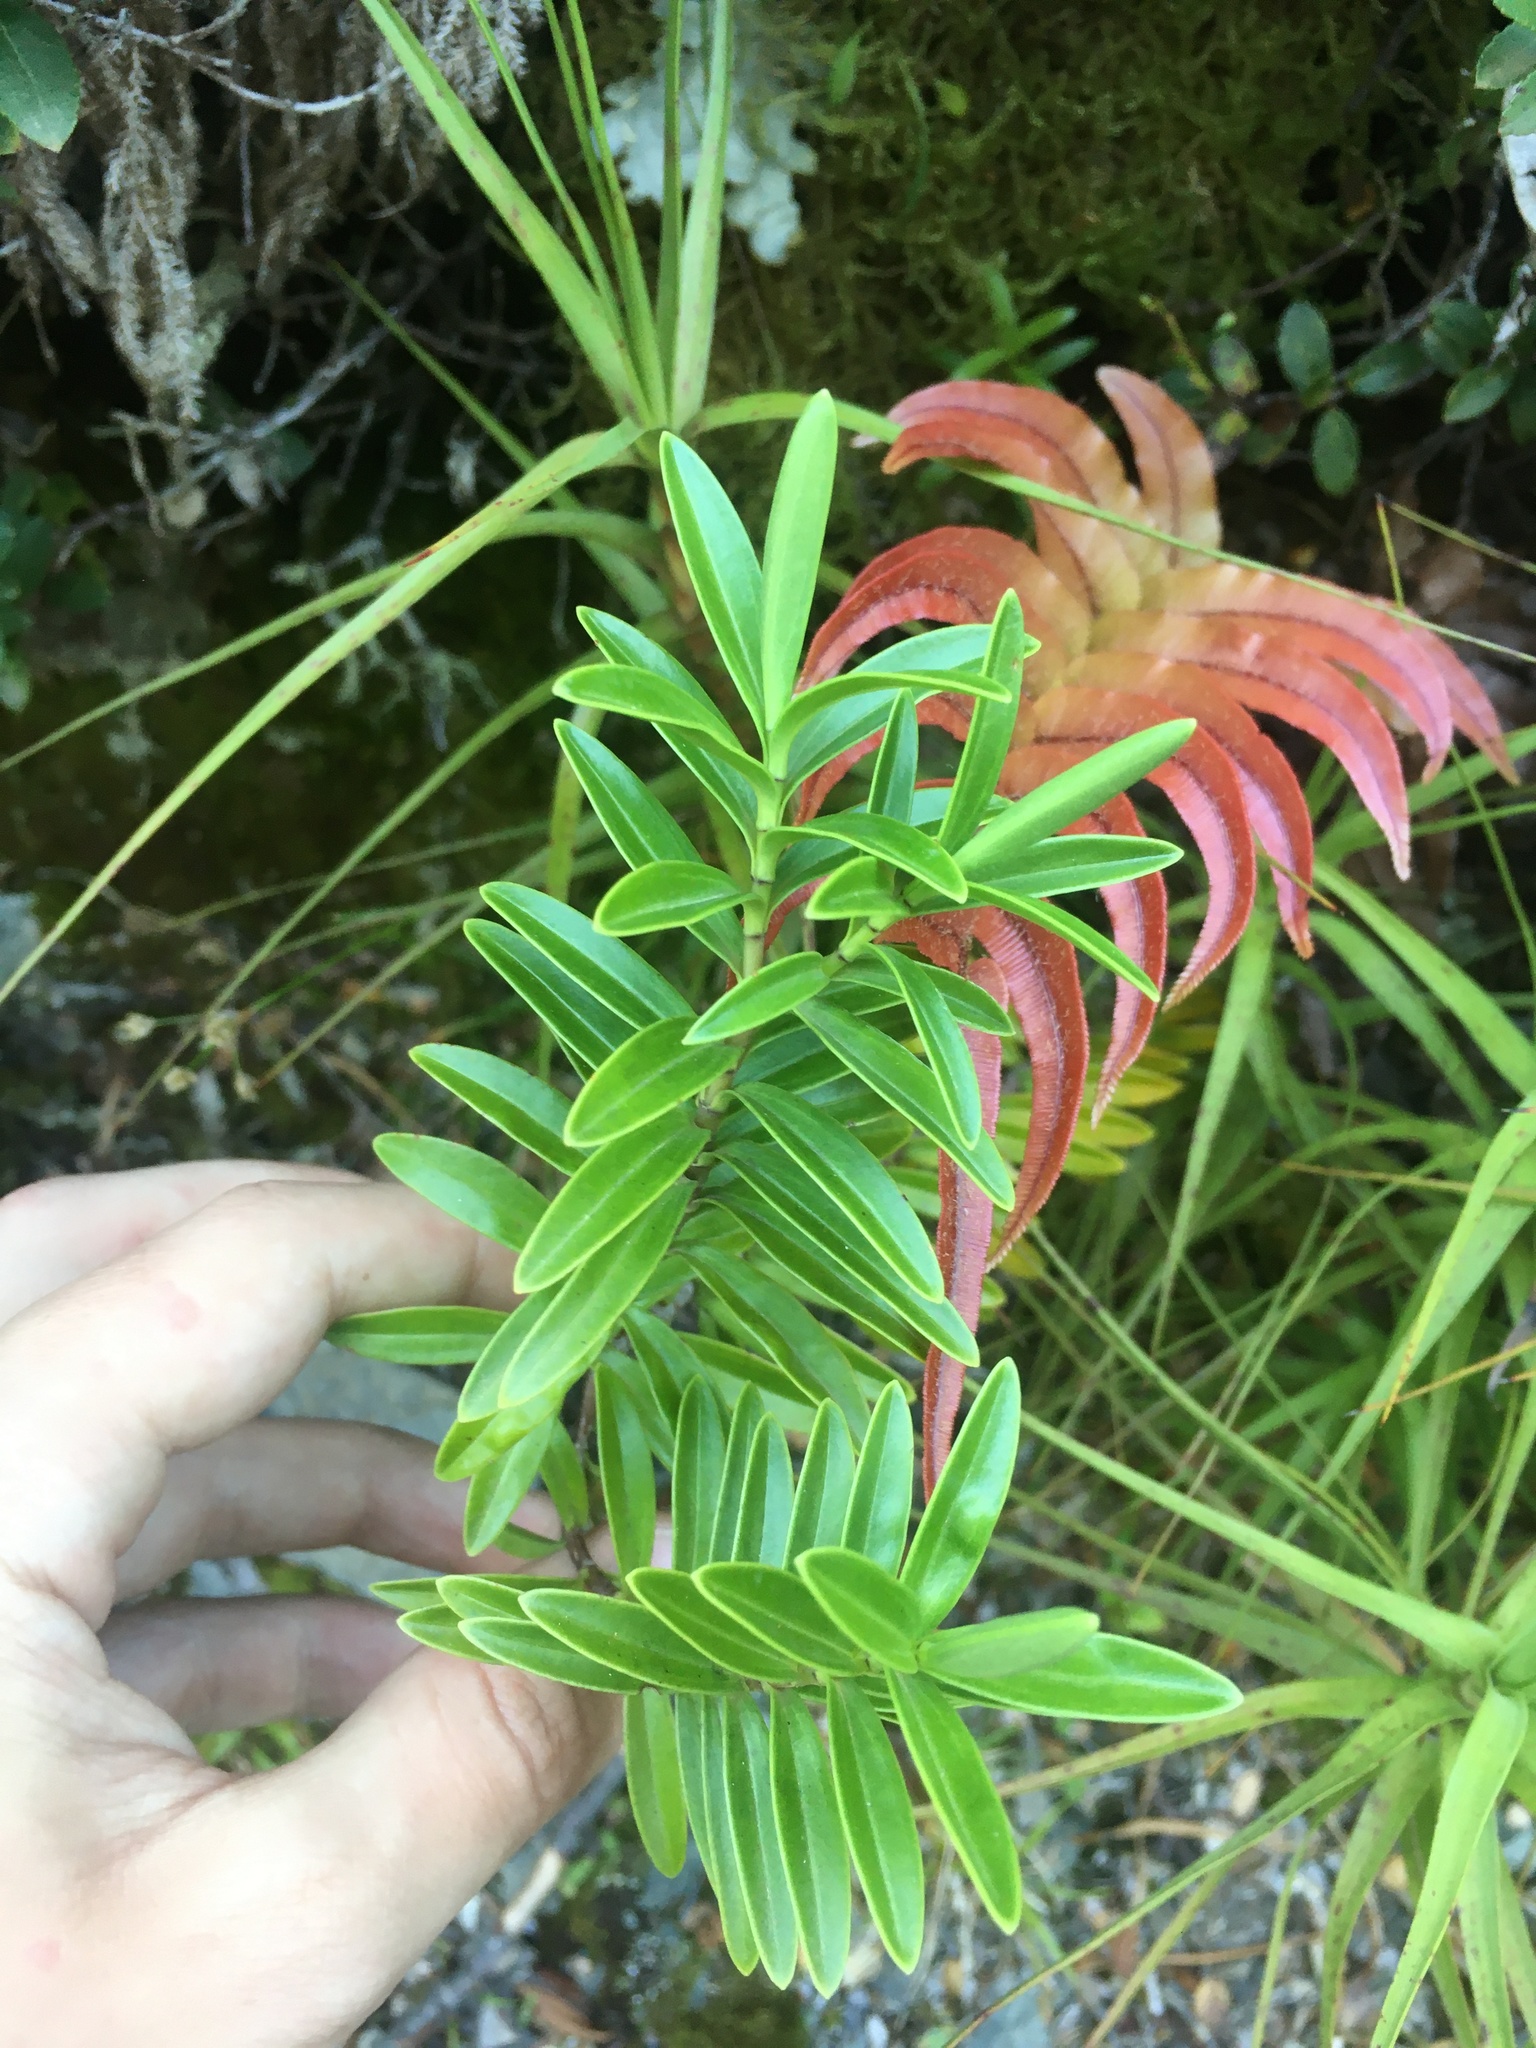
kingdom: Plantae
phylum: Tracheophyta
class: Magnoliopsida
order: Lamiales
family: Plantaginaceae
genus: Veronica
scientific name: Veronica rakaiensis
